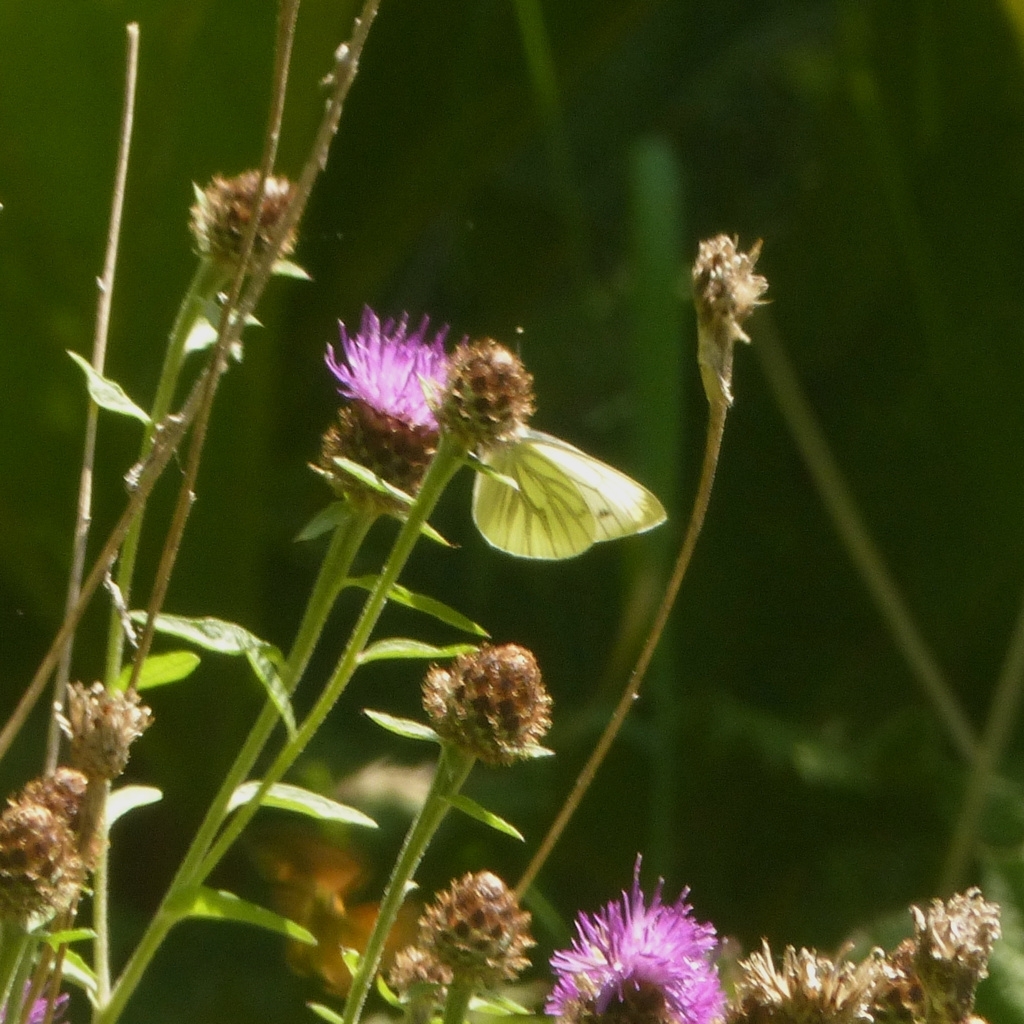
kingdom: Animalia
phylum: Arthropoda
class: Insecta
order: Lepidoptera
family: Pieridae
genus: Pieris
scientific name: Pieris napi
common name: Green-veined white
